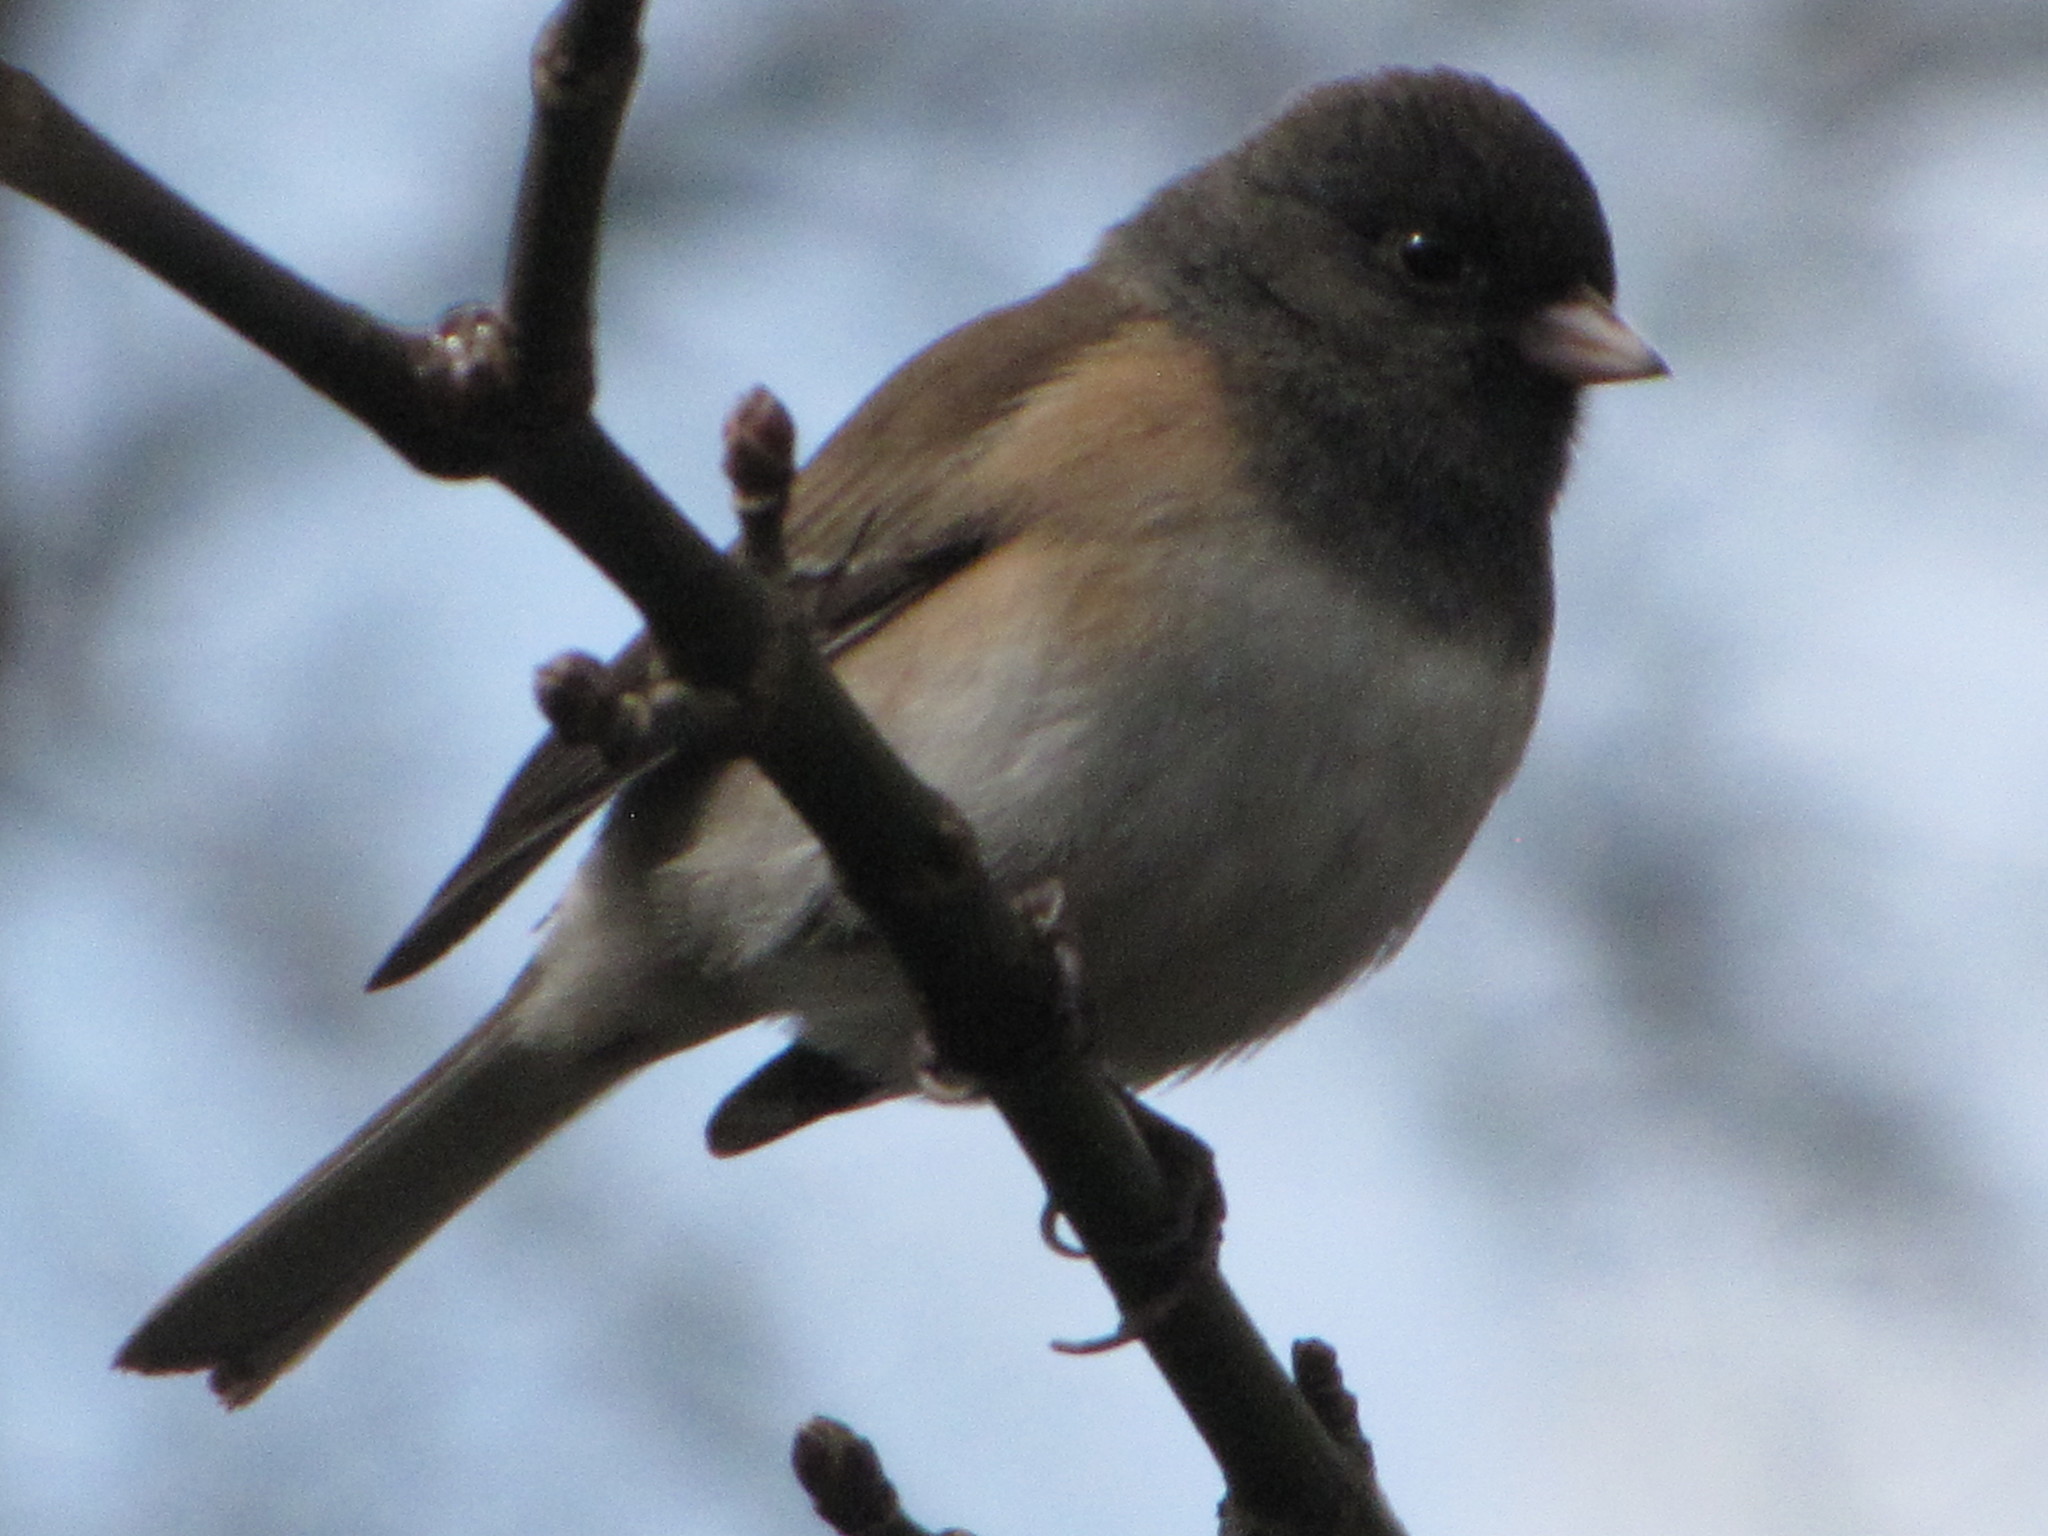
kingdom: Animalia
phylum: Chordata
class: Aves
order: Passeriformes
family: Passerellidae
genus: Junco
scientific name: Junco hyemalis
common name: Dark-eyed junco
